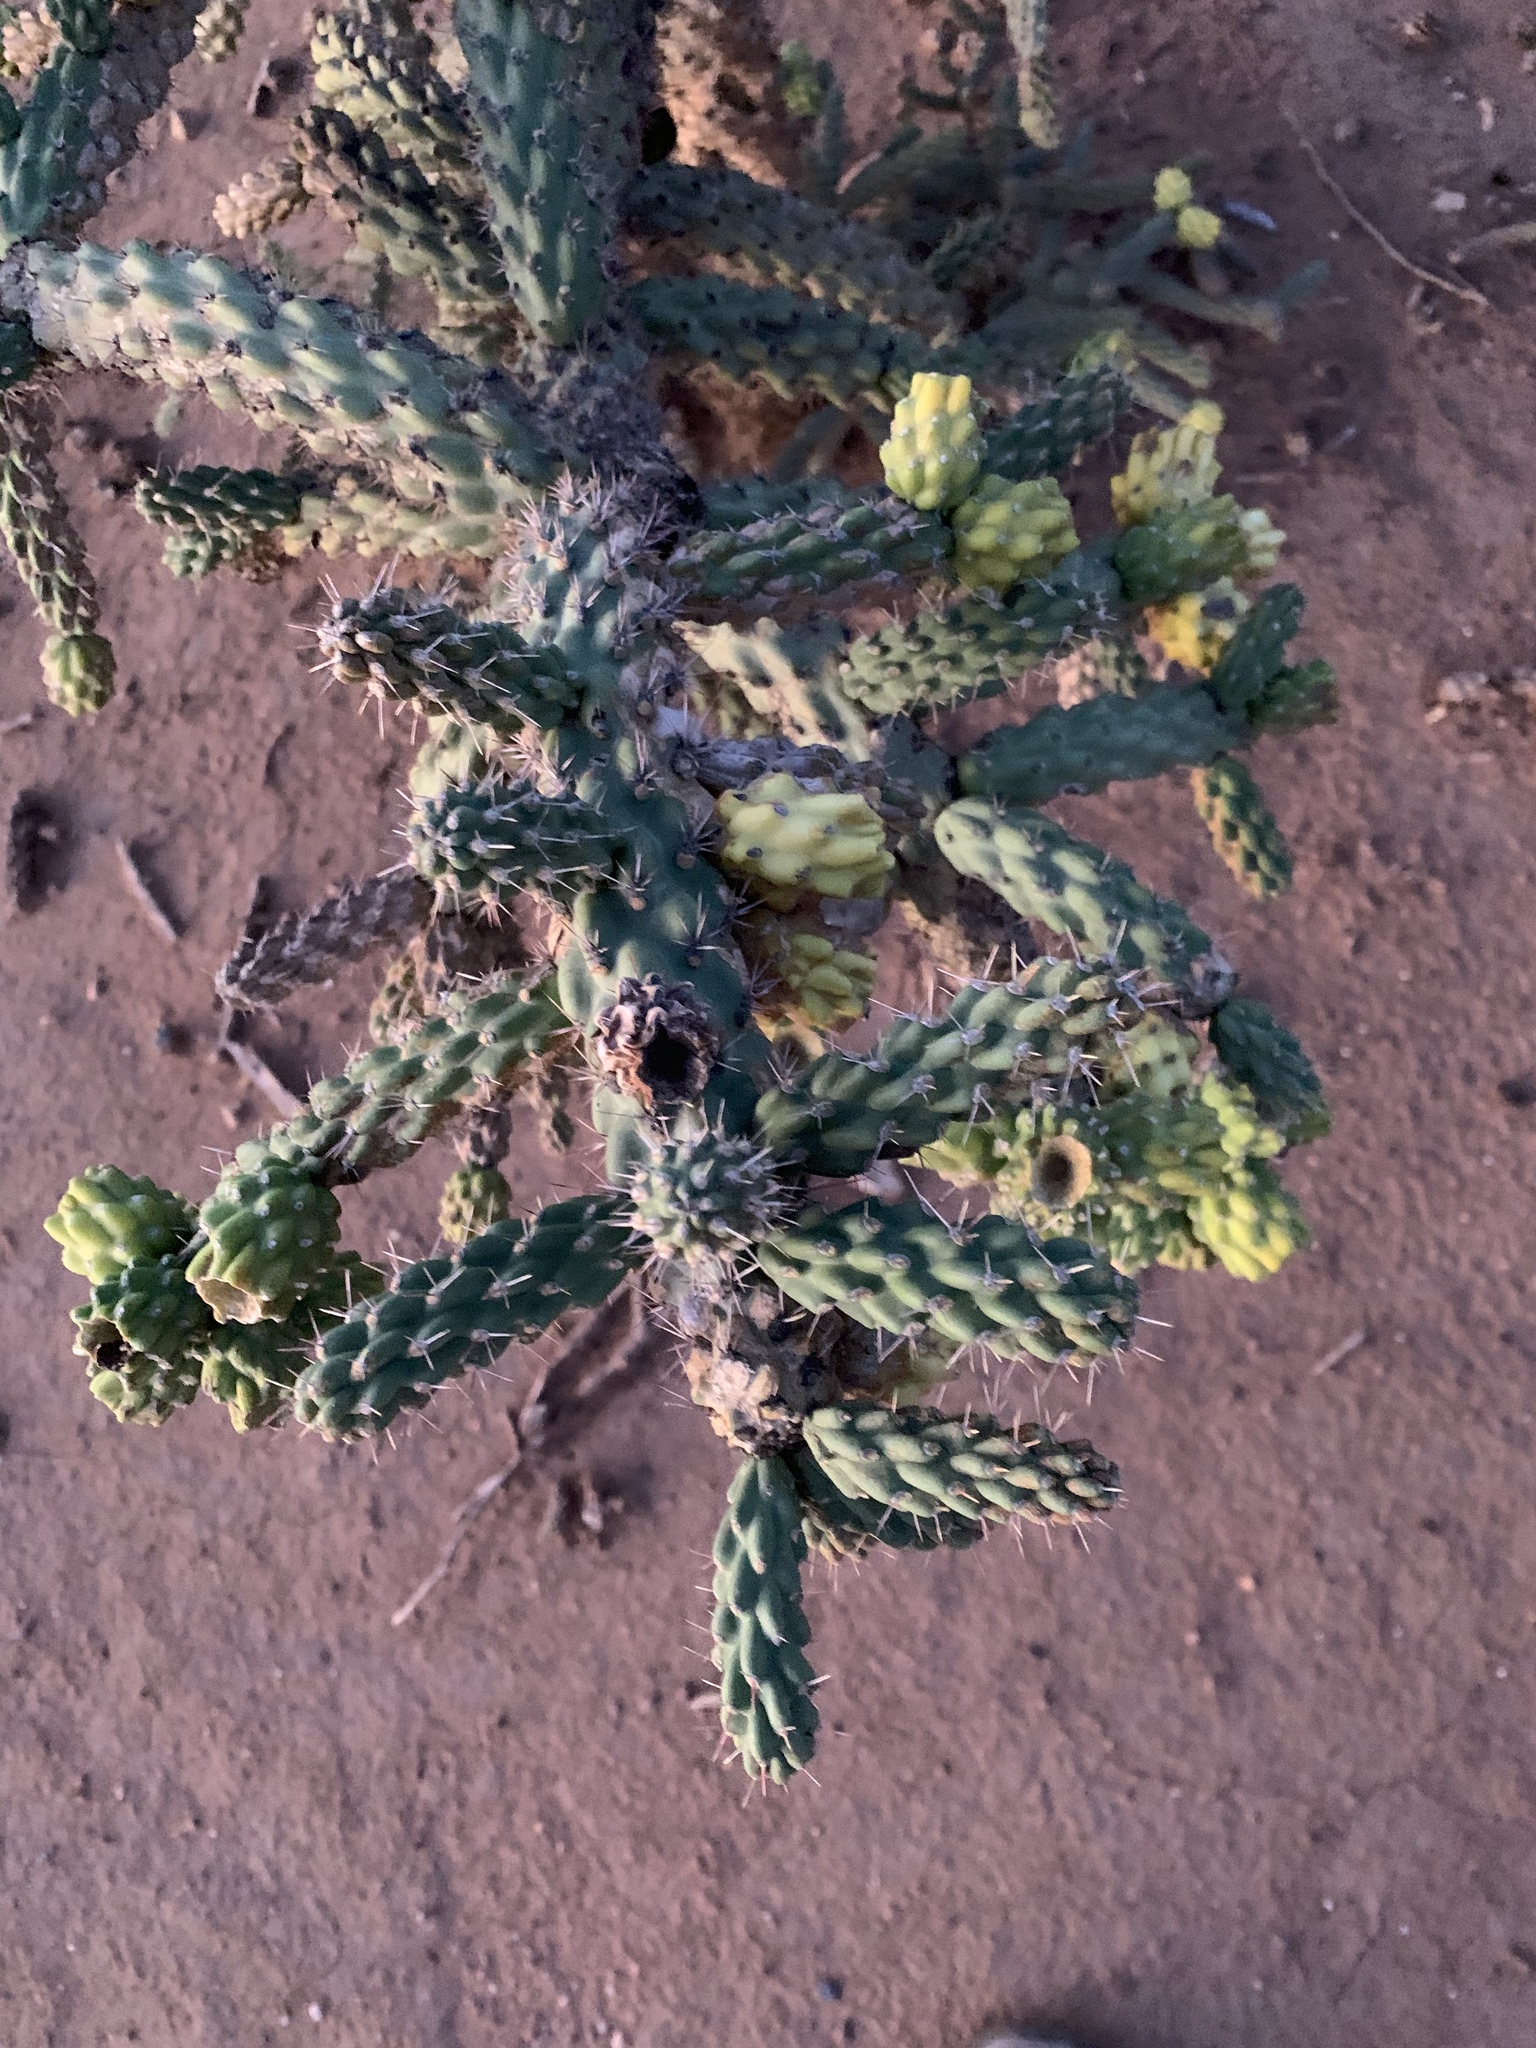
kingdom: Plantae
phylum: Tracheophyta
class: Magnoliopsida
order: Caryophyllales
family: Cactaceae
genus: Cylindropuntia
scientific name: Cylindropuntia imbricata
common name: Candelabrum cactus
